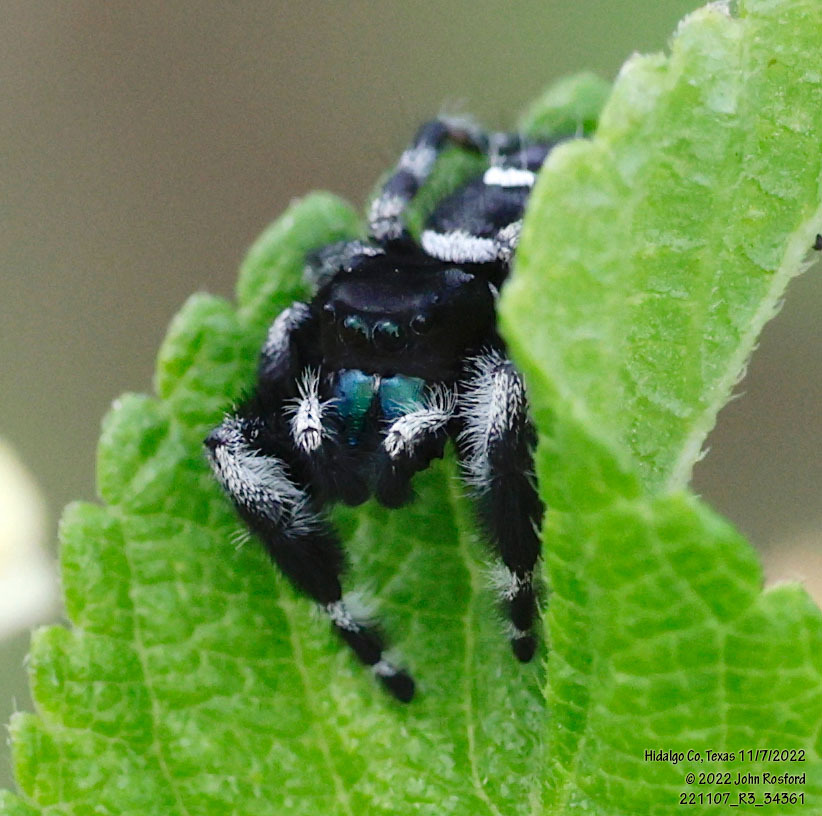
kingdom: Animalia
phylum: Arthropoda
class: Arachnida
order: Araneae
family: Salticidae
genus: Phidippus
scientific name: Phidippus audax
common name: Bold jumper
